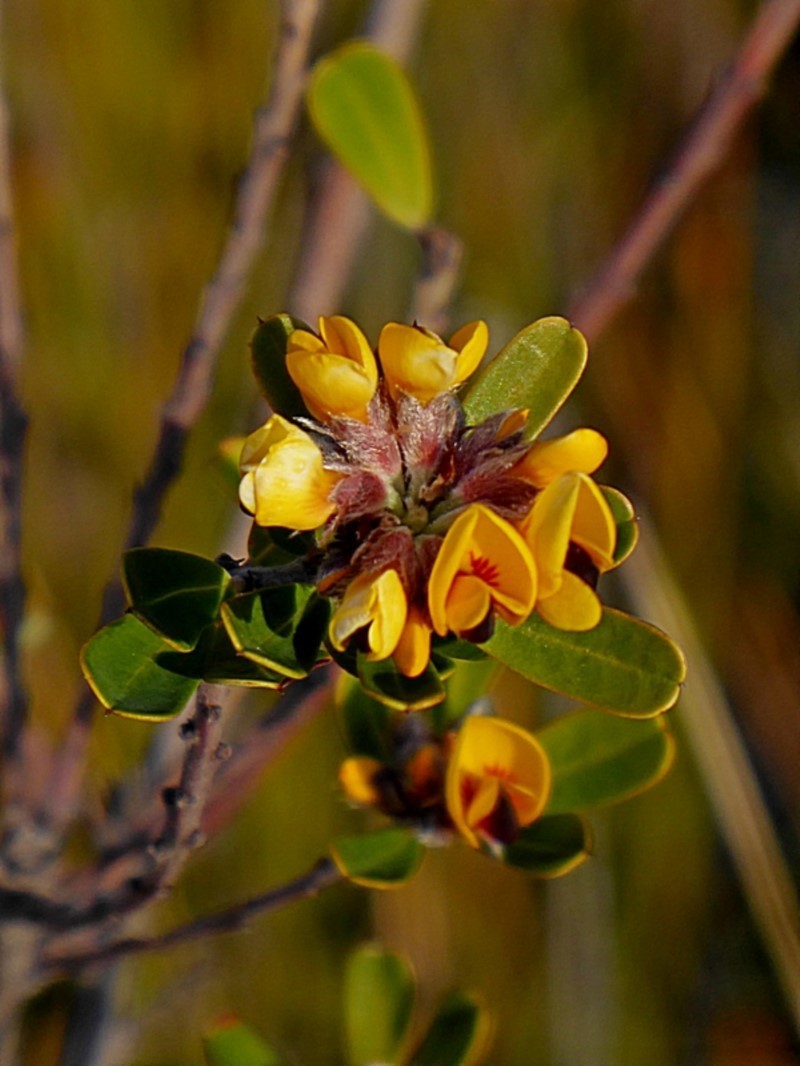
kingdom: Plantae
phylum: Tracheophyta
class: Magnoliopsida
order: Fabales
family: Fabaceae
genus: Pultenaea
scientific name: Pultenaea daphnoides
